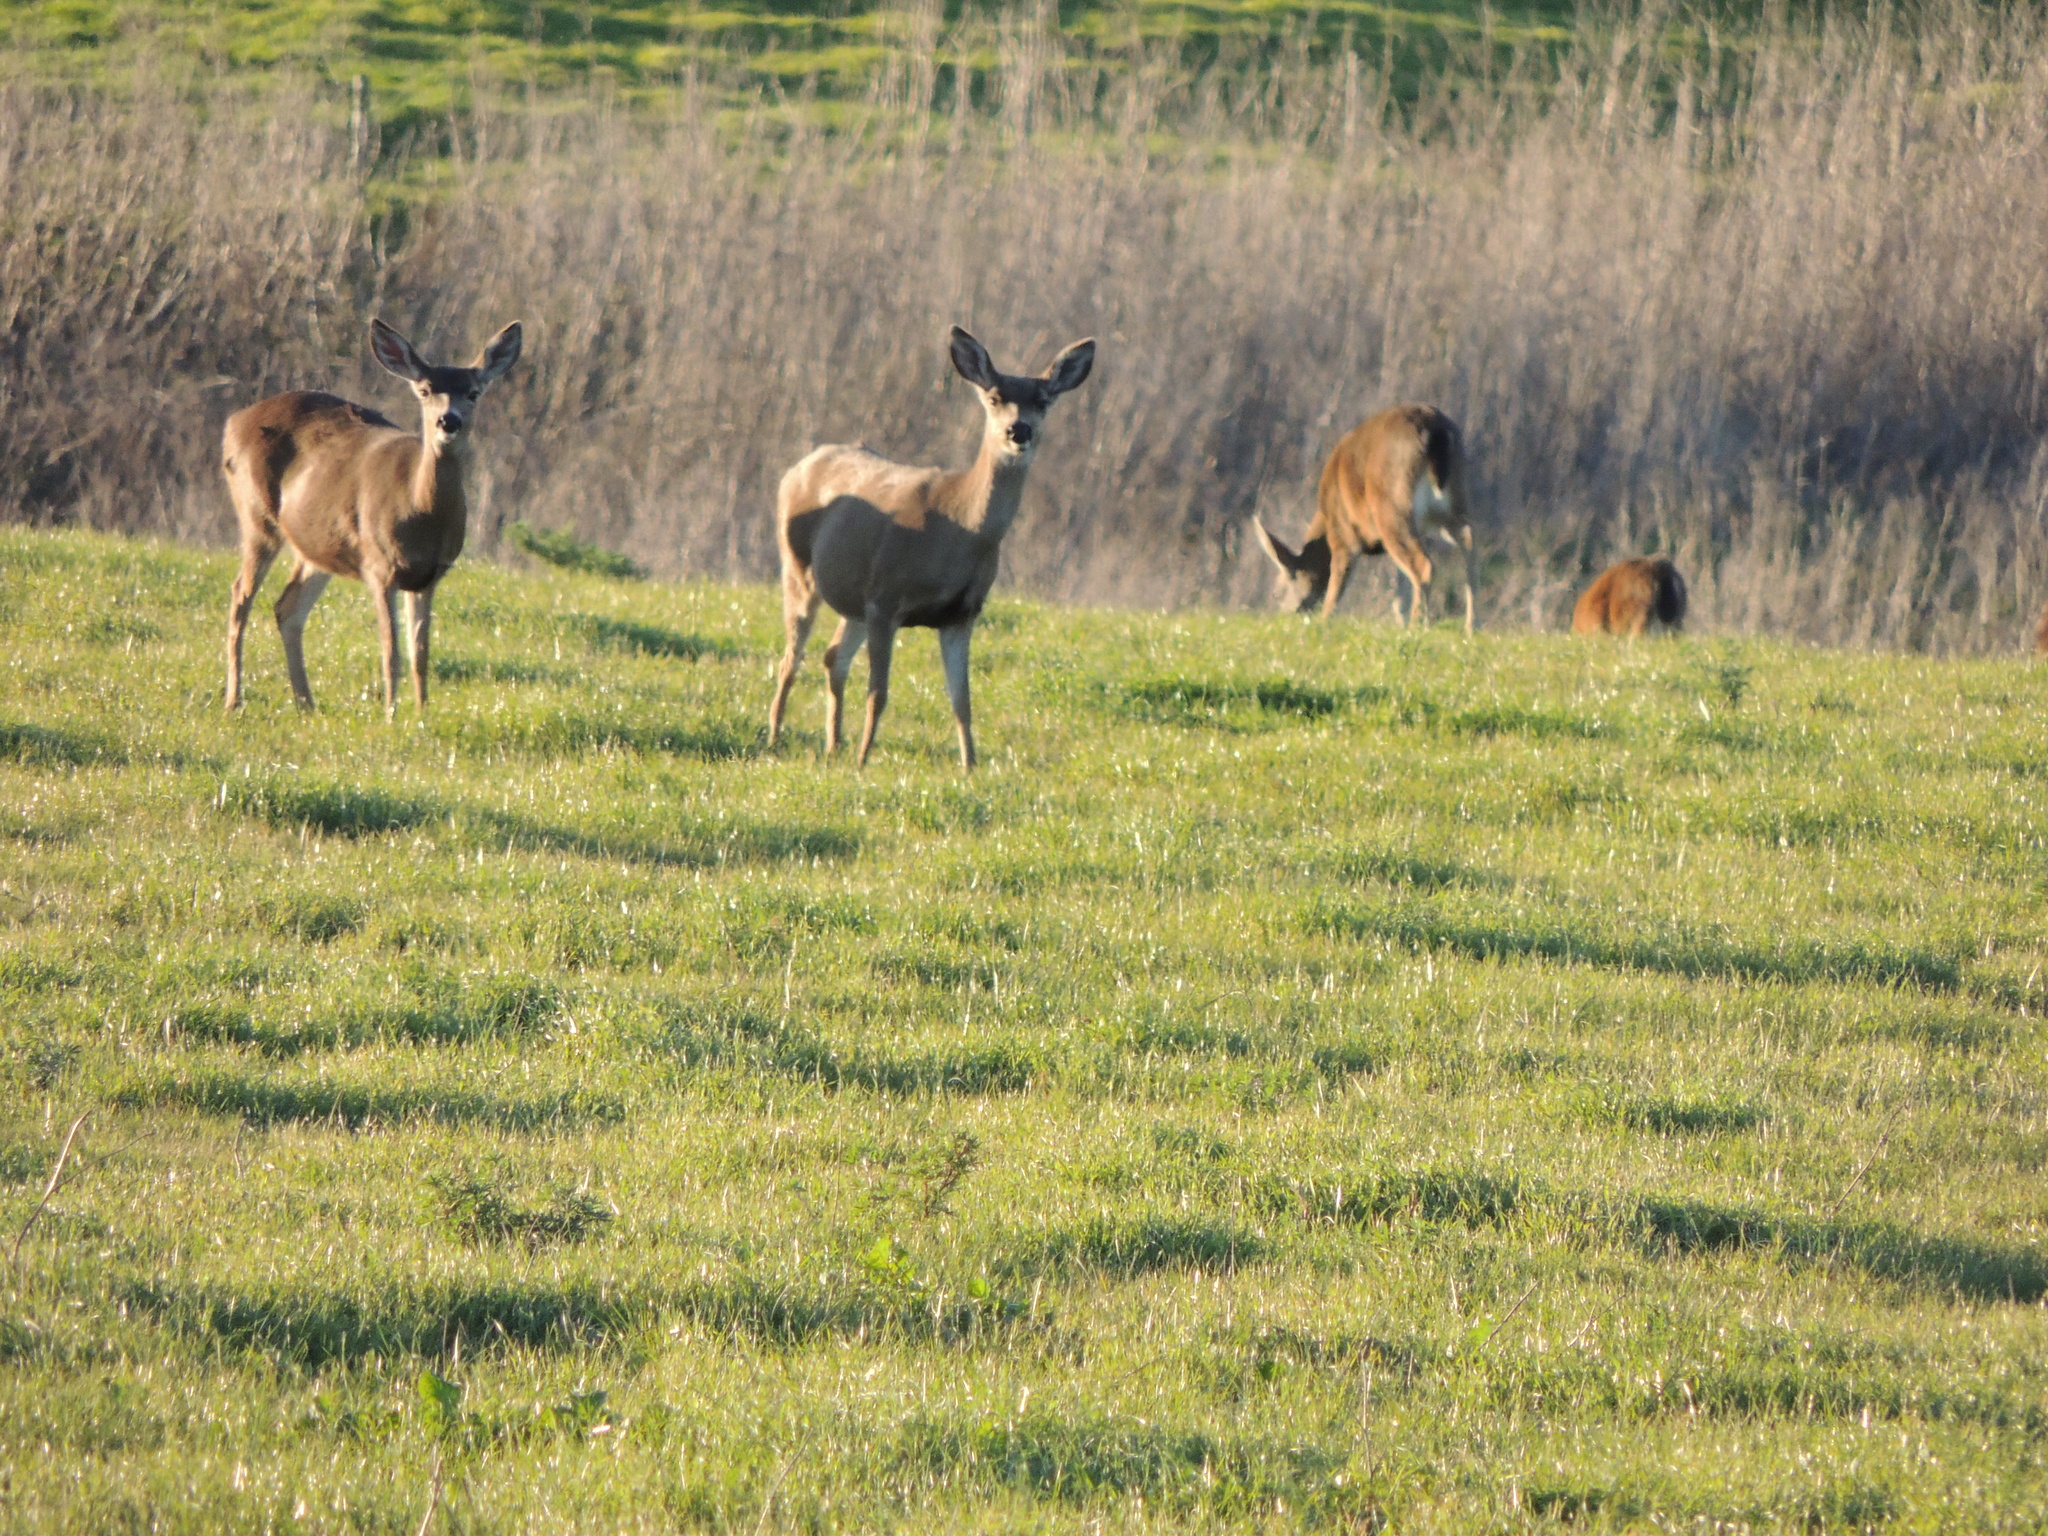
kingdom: Animalia
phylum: Chordata
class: Mammalia
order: Artiodactyla
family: Cervidae
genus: Odocoileus
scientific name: Odocoileus hemionus
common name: Mule deer
